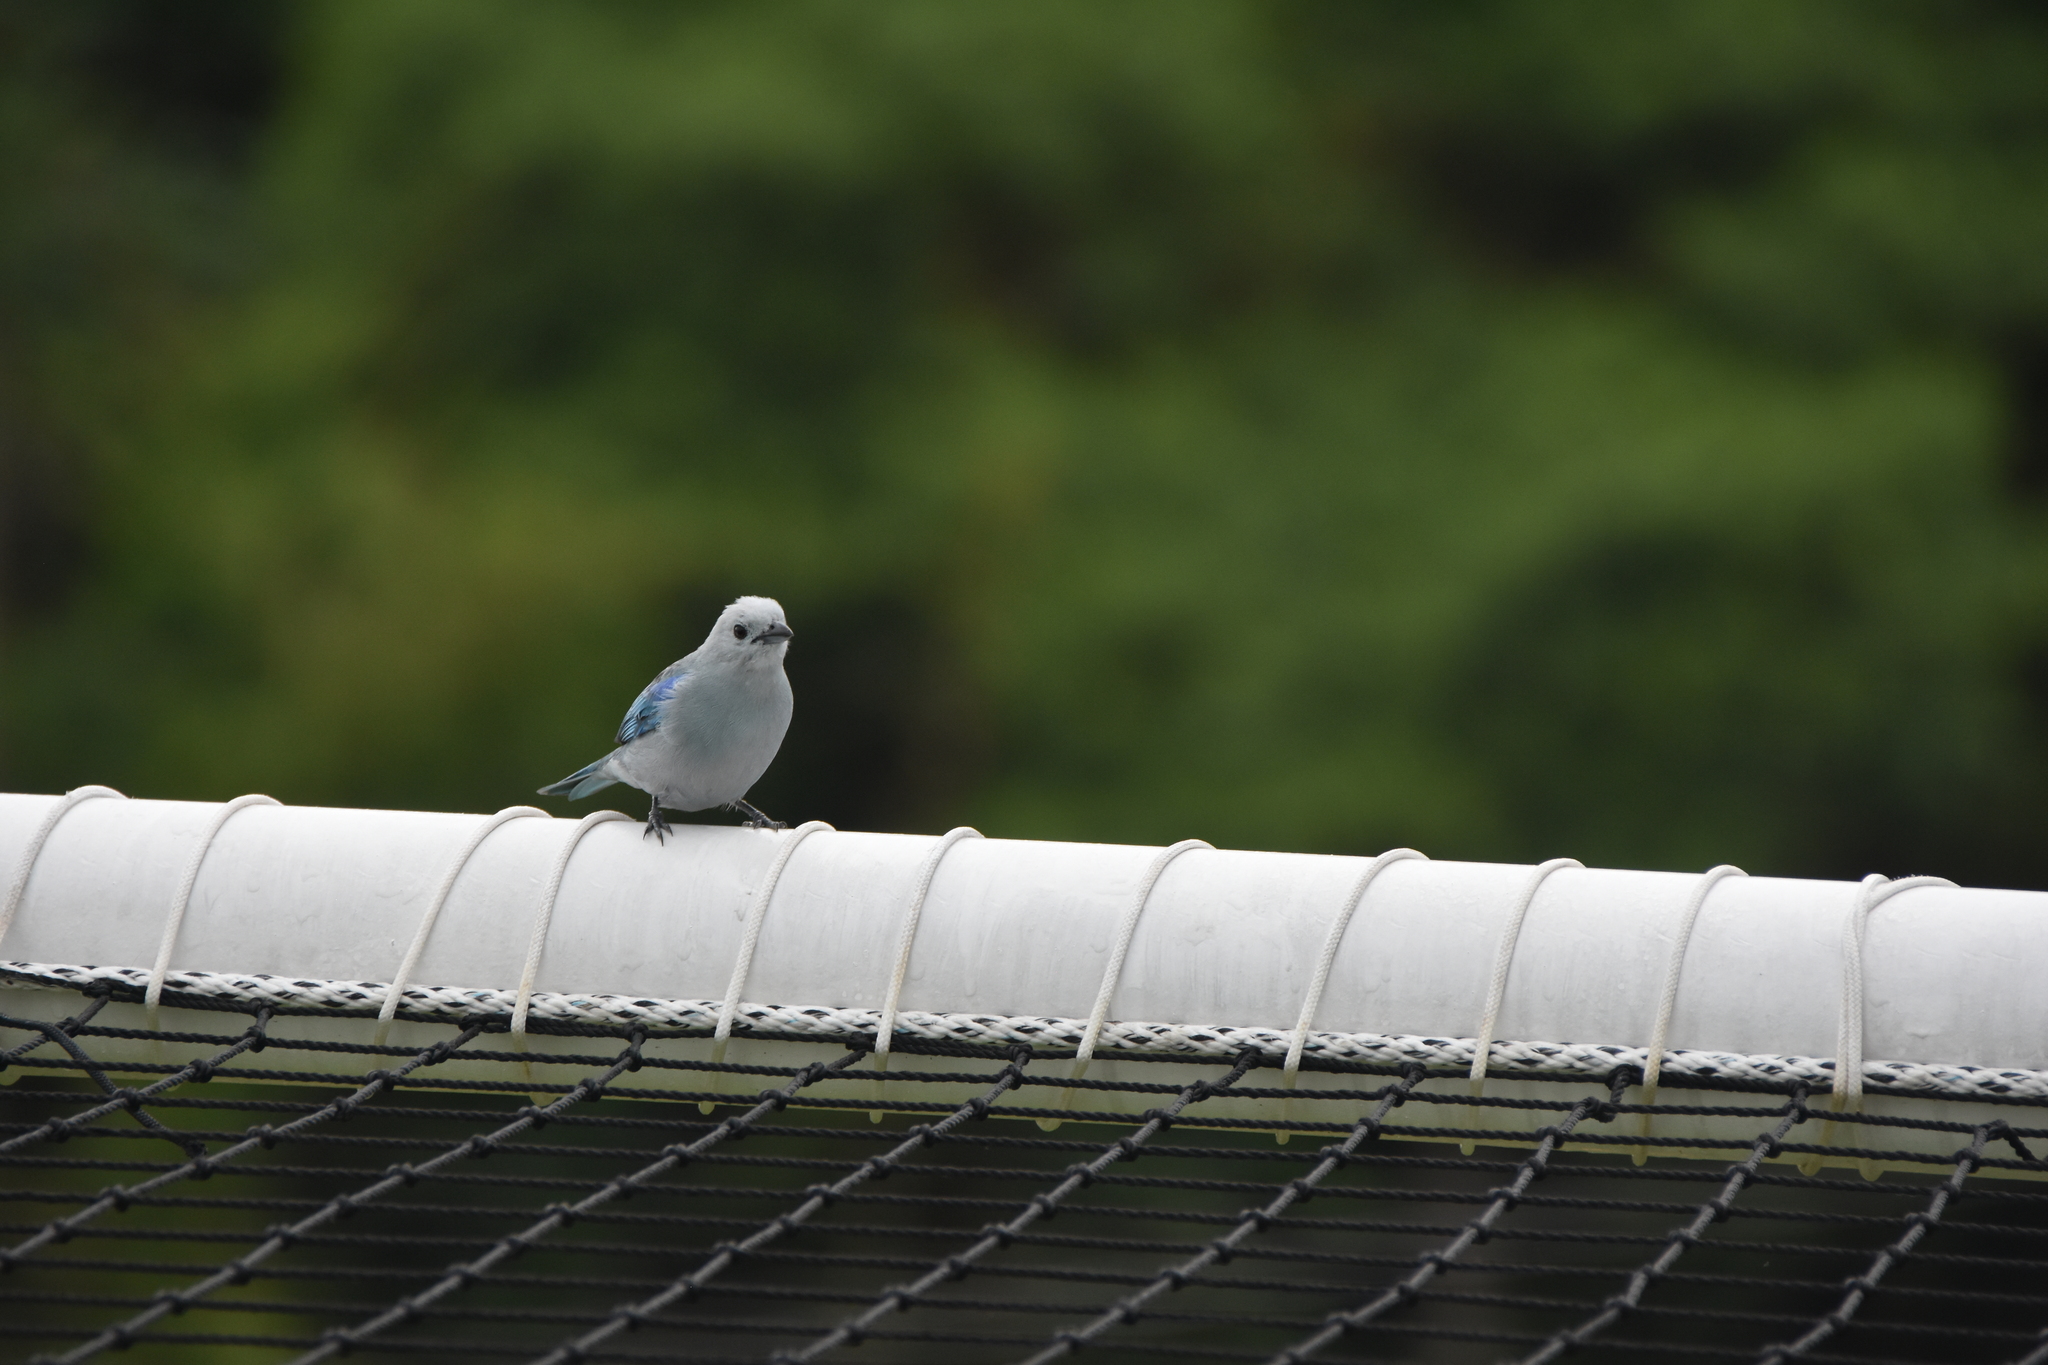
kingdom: Animalia
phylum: Chordata
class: Aves
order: Passeriformes
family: Thraupidae
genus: Thraupis
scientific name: Thraupis episcopus
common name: Blue-grey tanager
